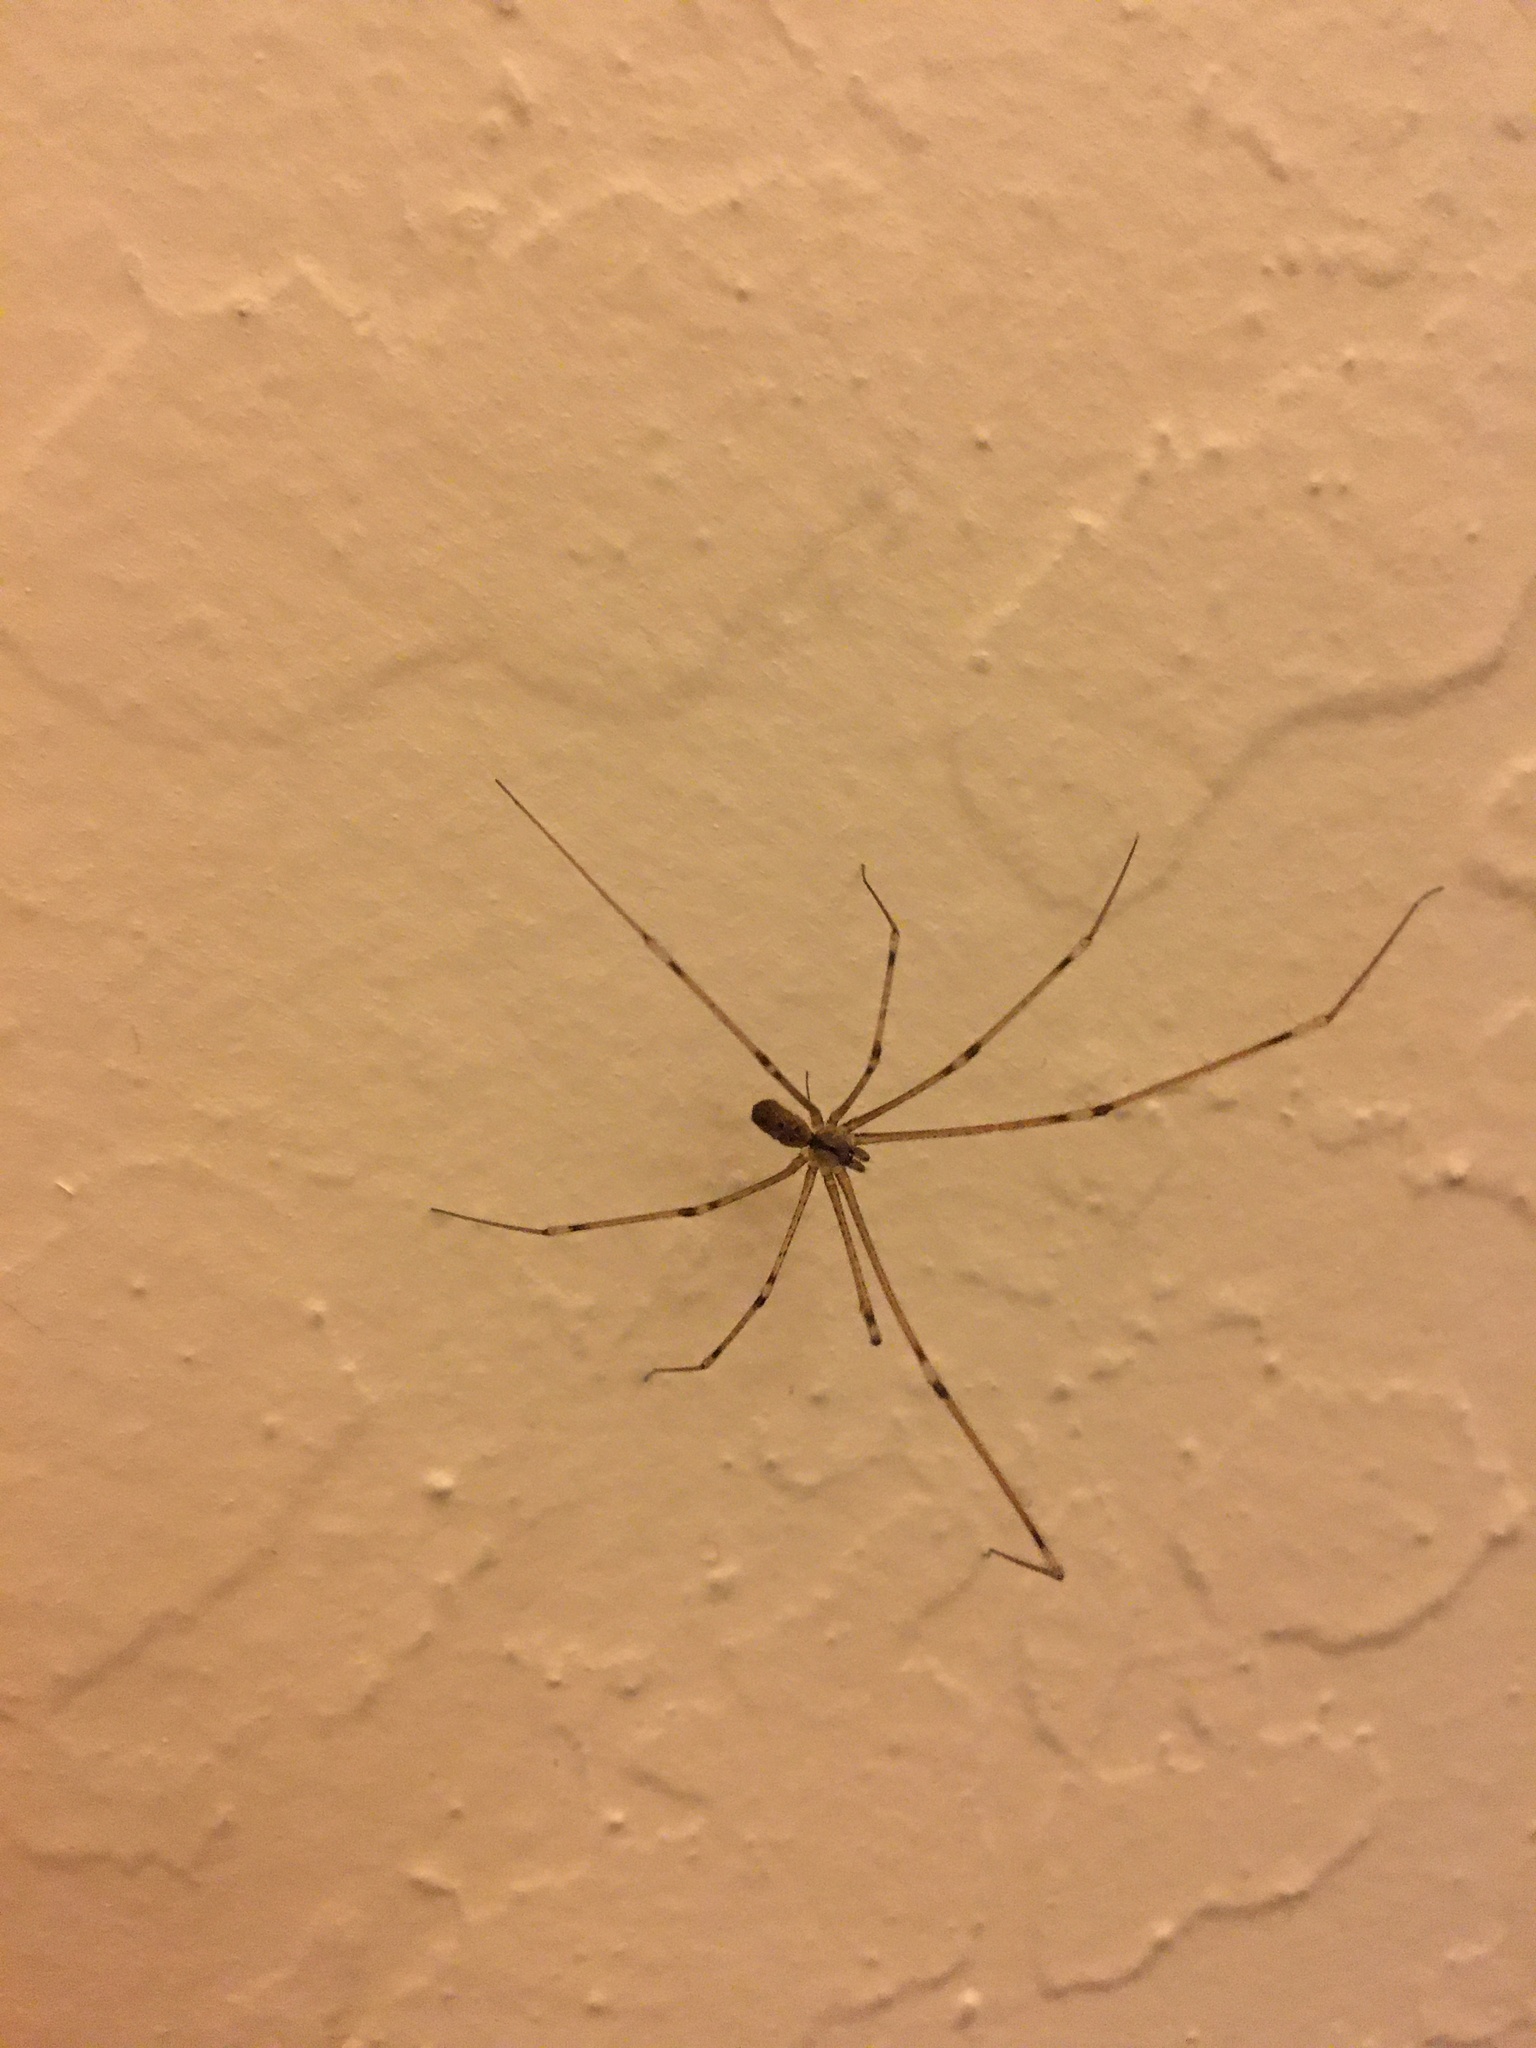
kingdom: Animalia
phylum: Arthropoda
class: Arachnida
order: Araneae
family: Pholcidae
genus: Holocnemus
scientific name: Holocnemus pluchei
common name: Marbled cellar spider
